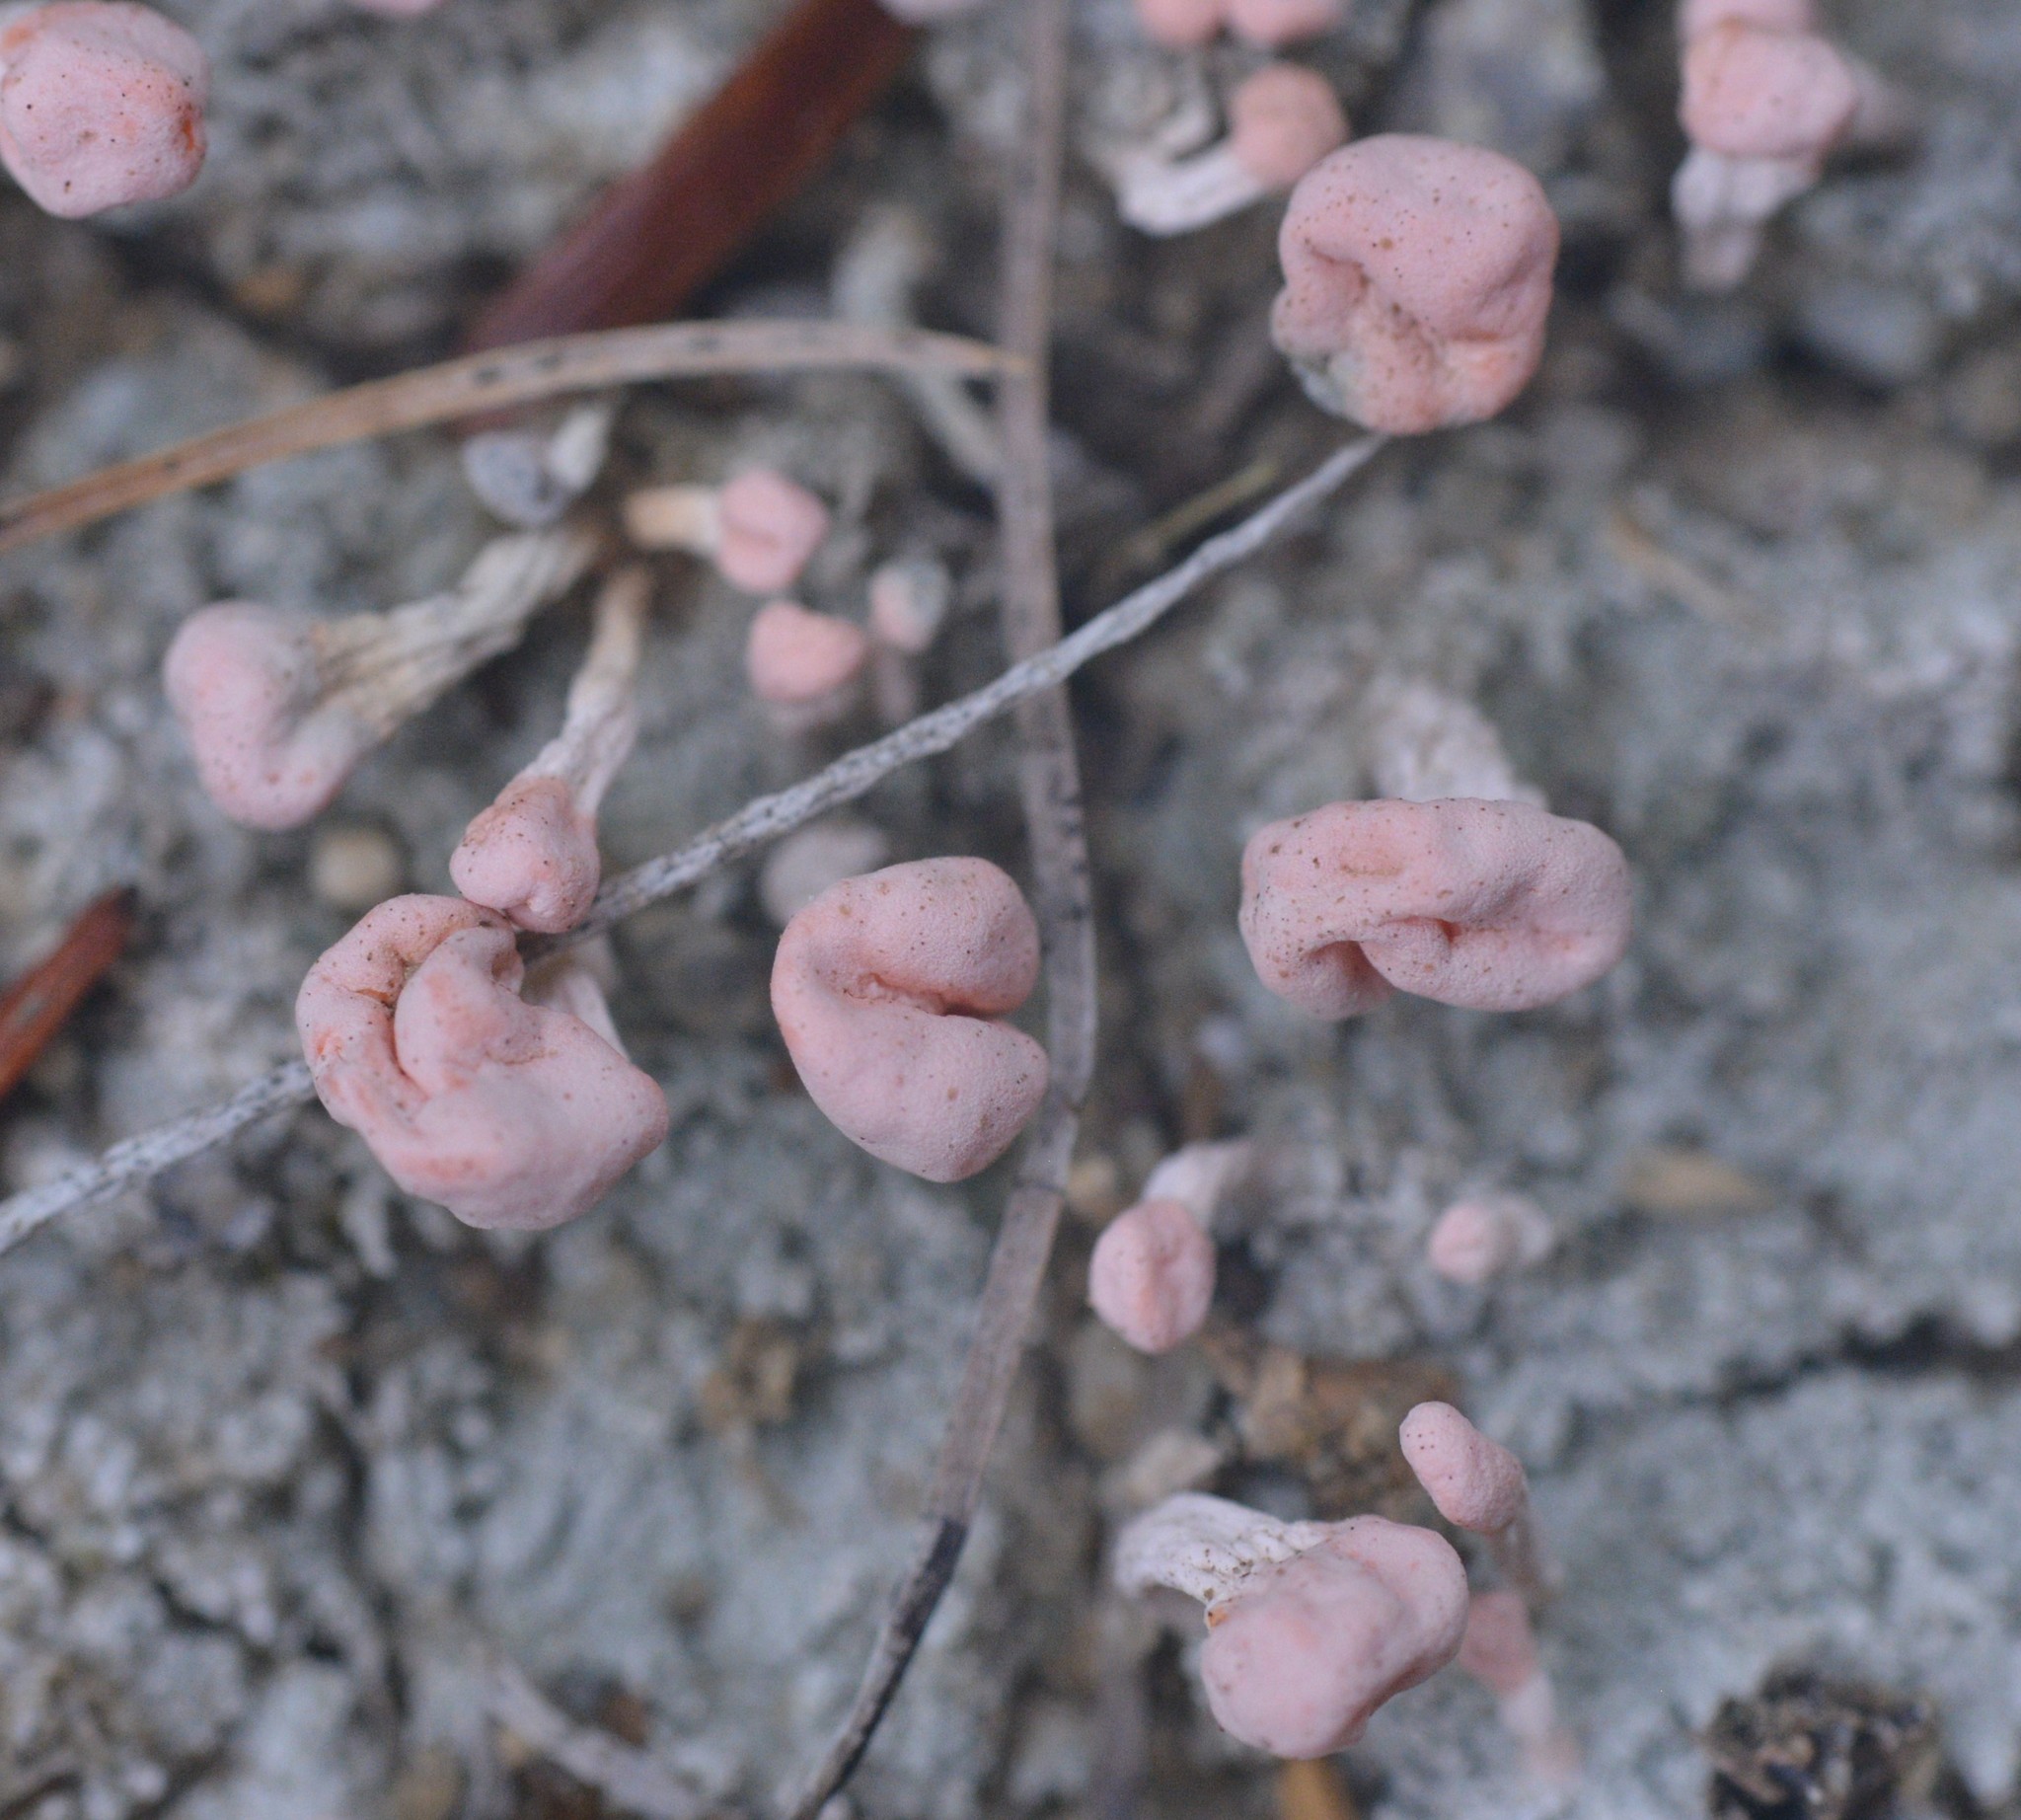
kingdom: Fungi
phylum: Ascomycota
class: Lecanoromycetes
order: Pertusariales
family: Icmadophilaceae
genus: Dibaeis
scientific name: Dibaeis baeomyces
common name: Pink earth lichen
